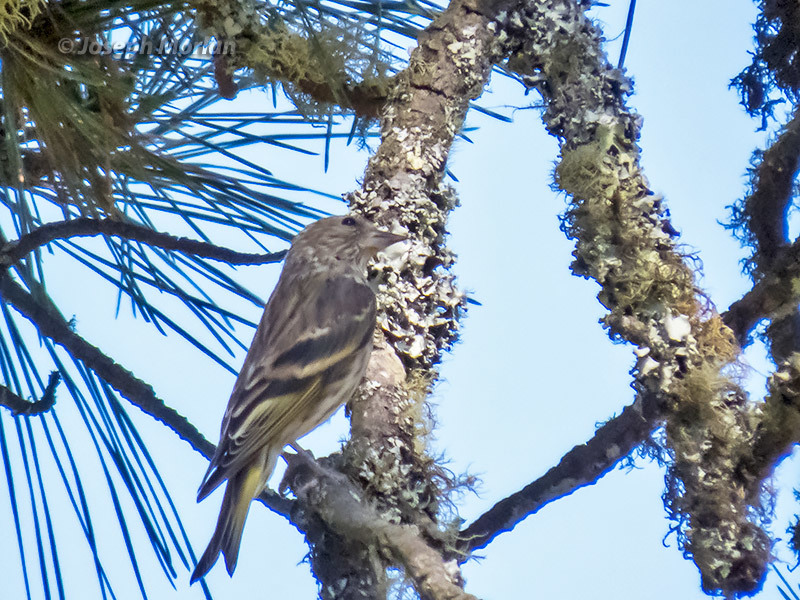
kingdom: Animalia
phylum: Chordata
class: Aves
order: Passeriformes
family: Fringillidae
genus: Spinus
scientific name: Spinus pinus
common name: Pine siskin
